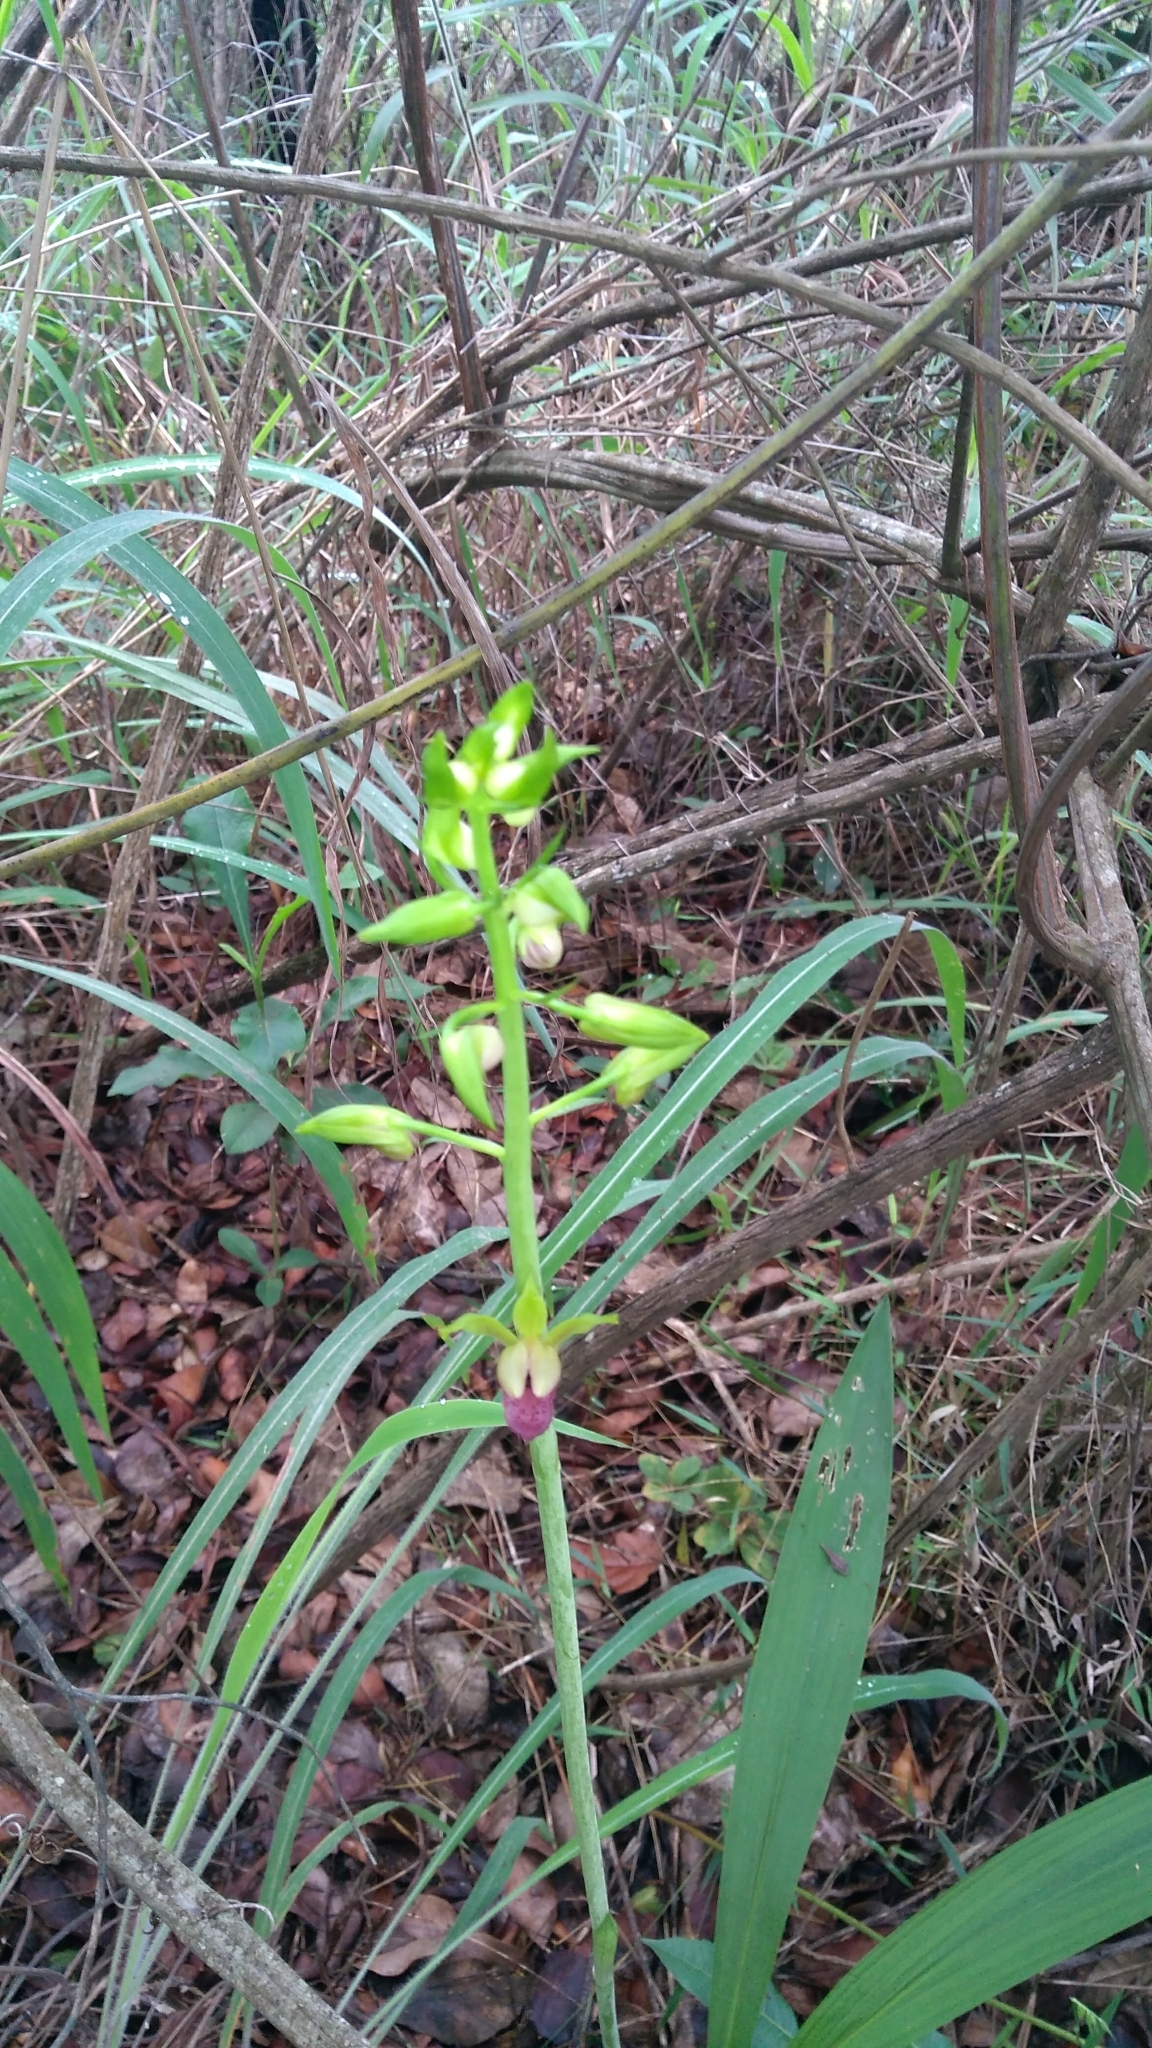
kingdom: Plantae
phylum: Tracheophyta
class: Liliopsida
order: Asparagales
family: Orchidaceae
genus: Eulophia
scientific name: Eulophia alta
